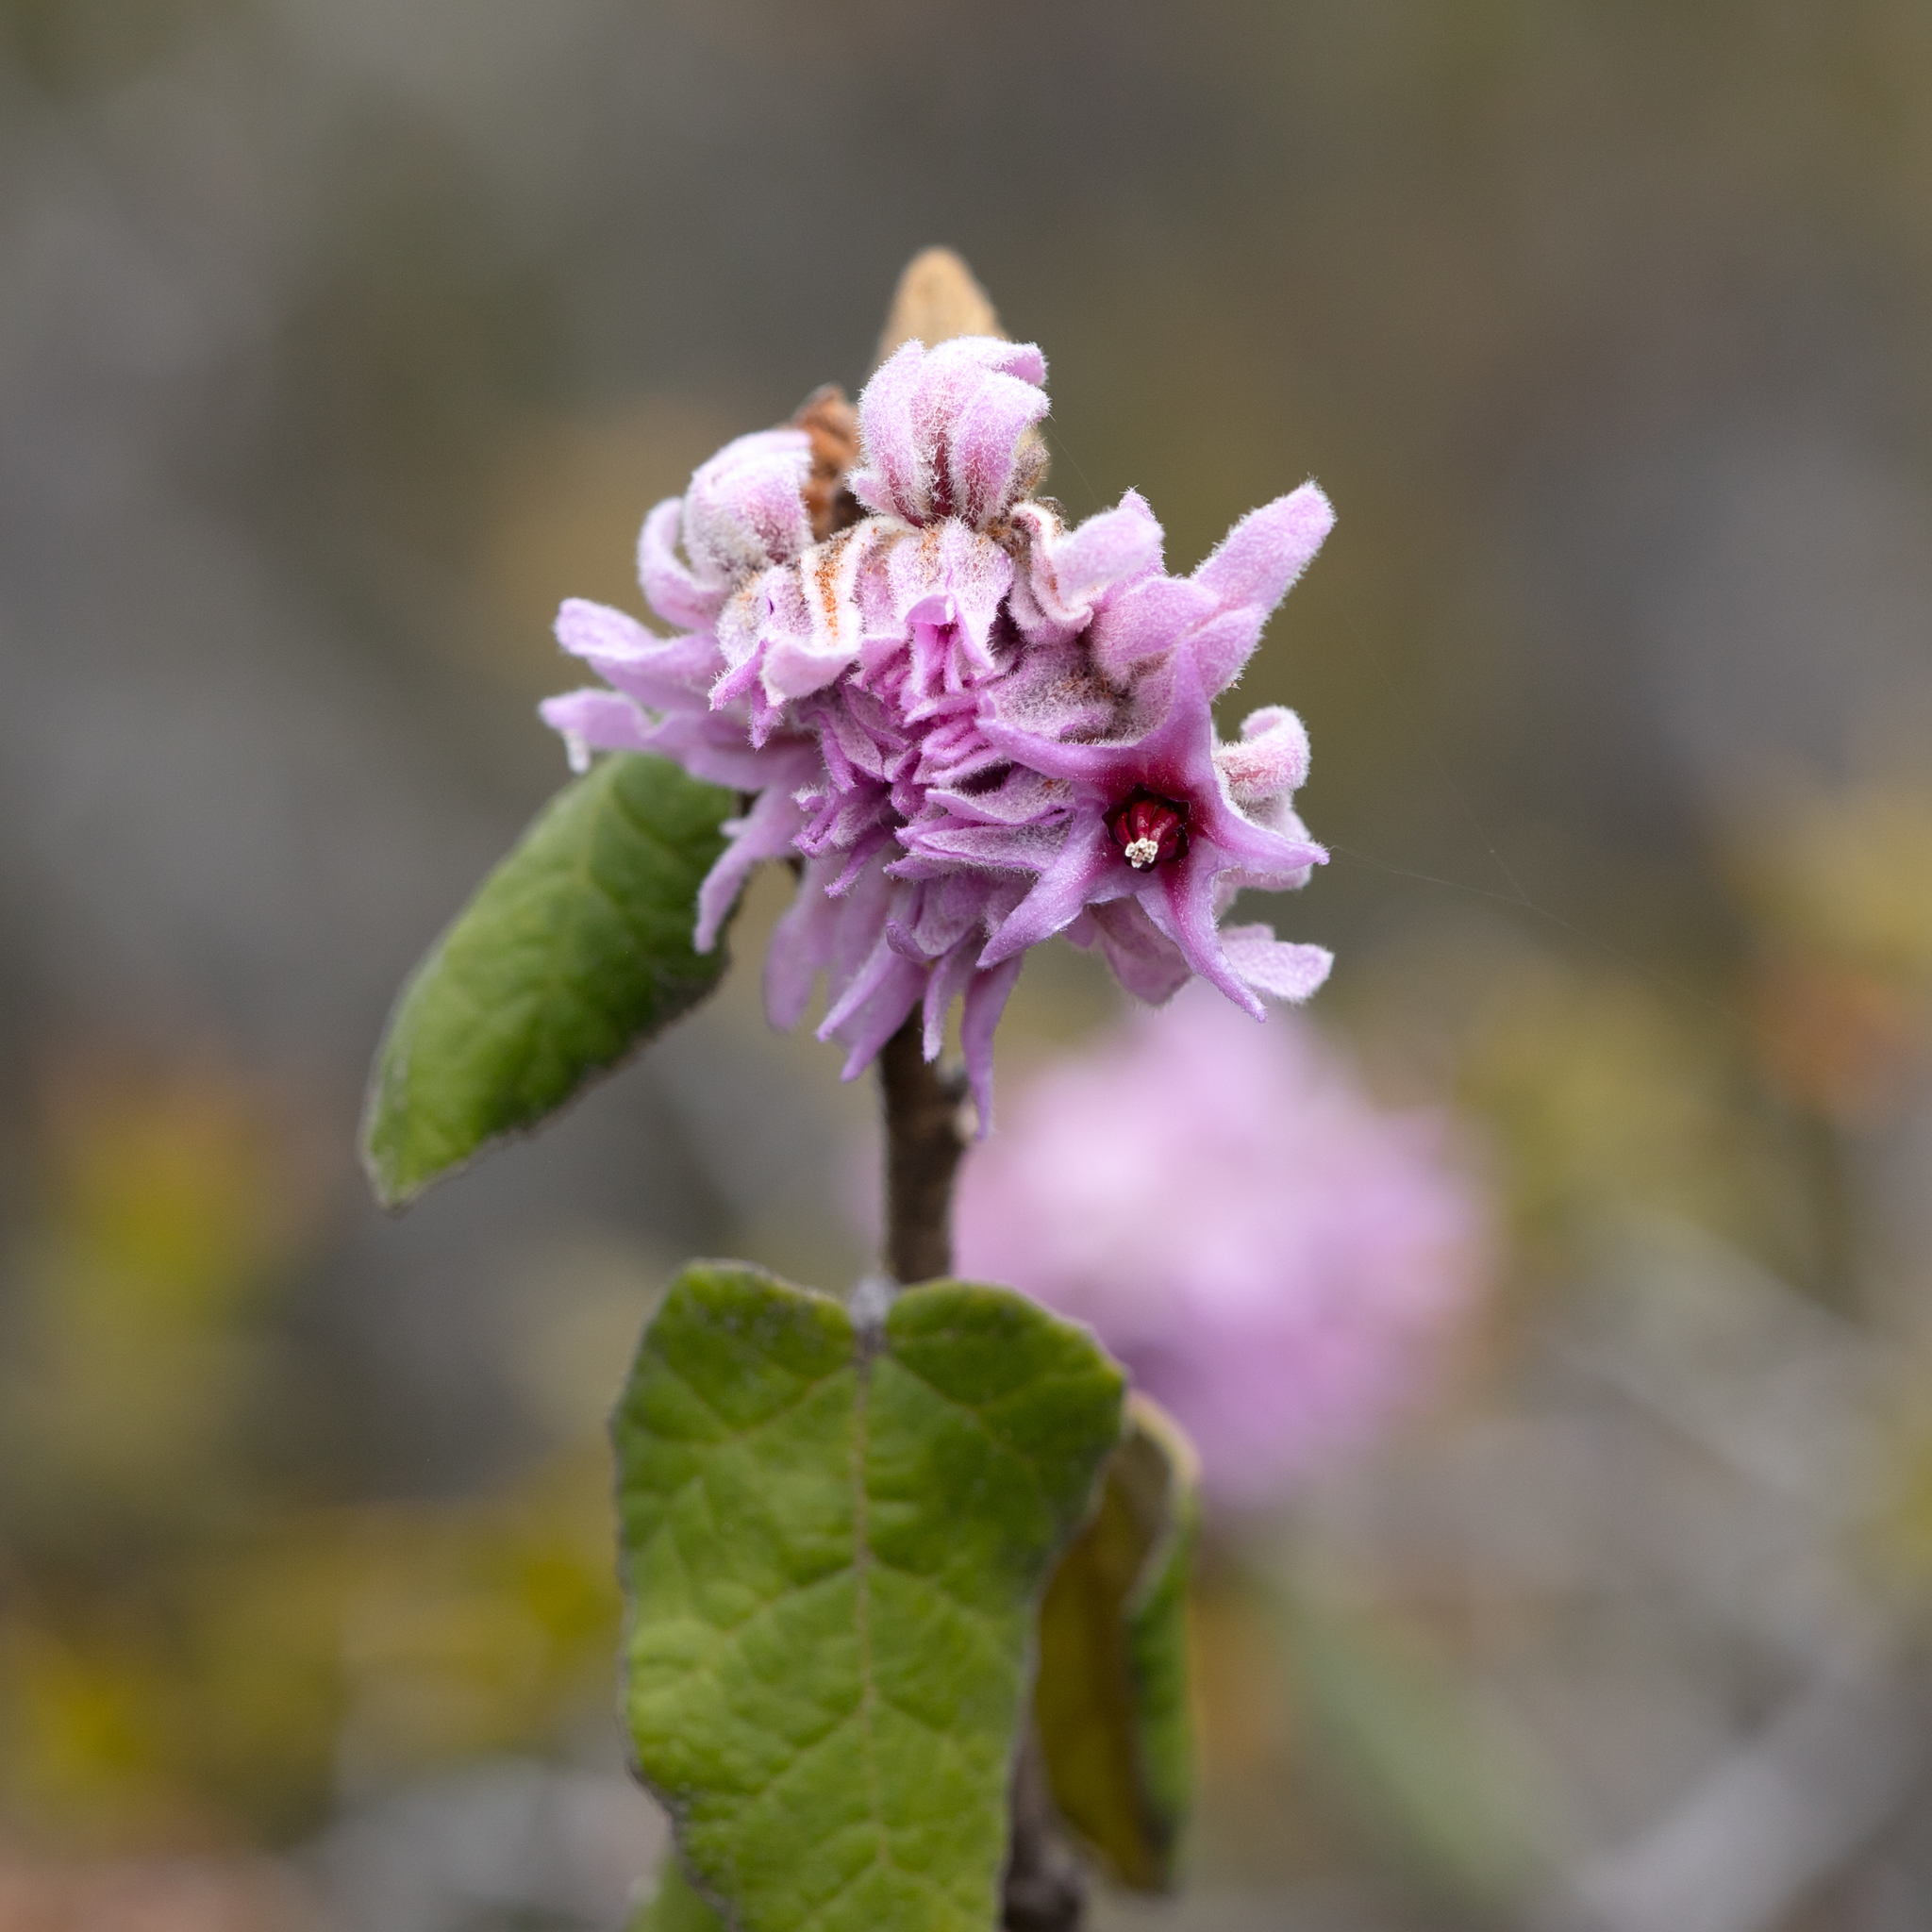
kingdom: Plantae
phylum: Tracheophyta
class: Magnoliopsida
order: Malvales
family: Malvaceae
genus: Lasiopetalum
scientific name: Lasiopetalum discolor
